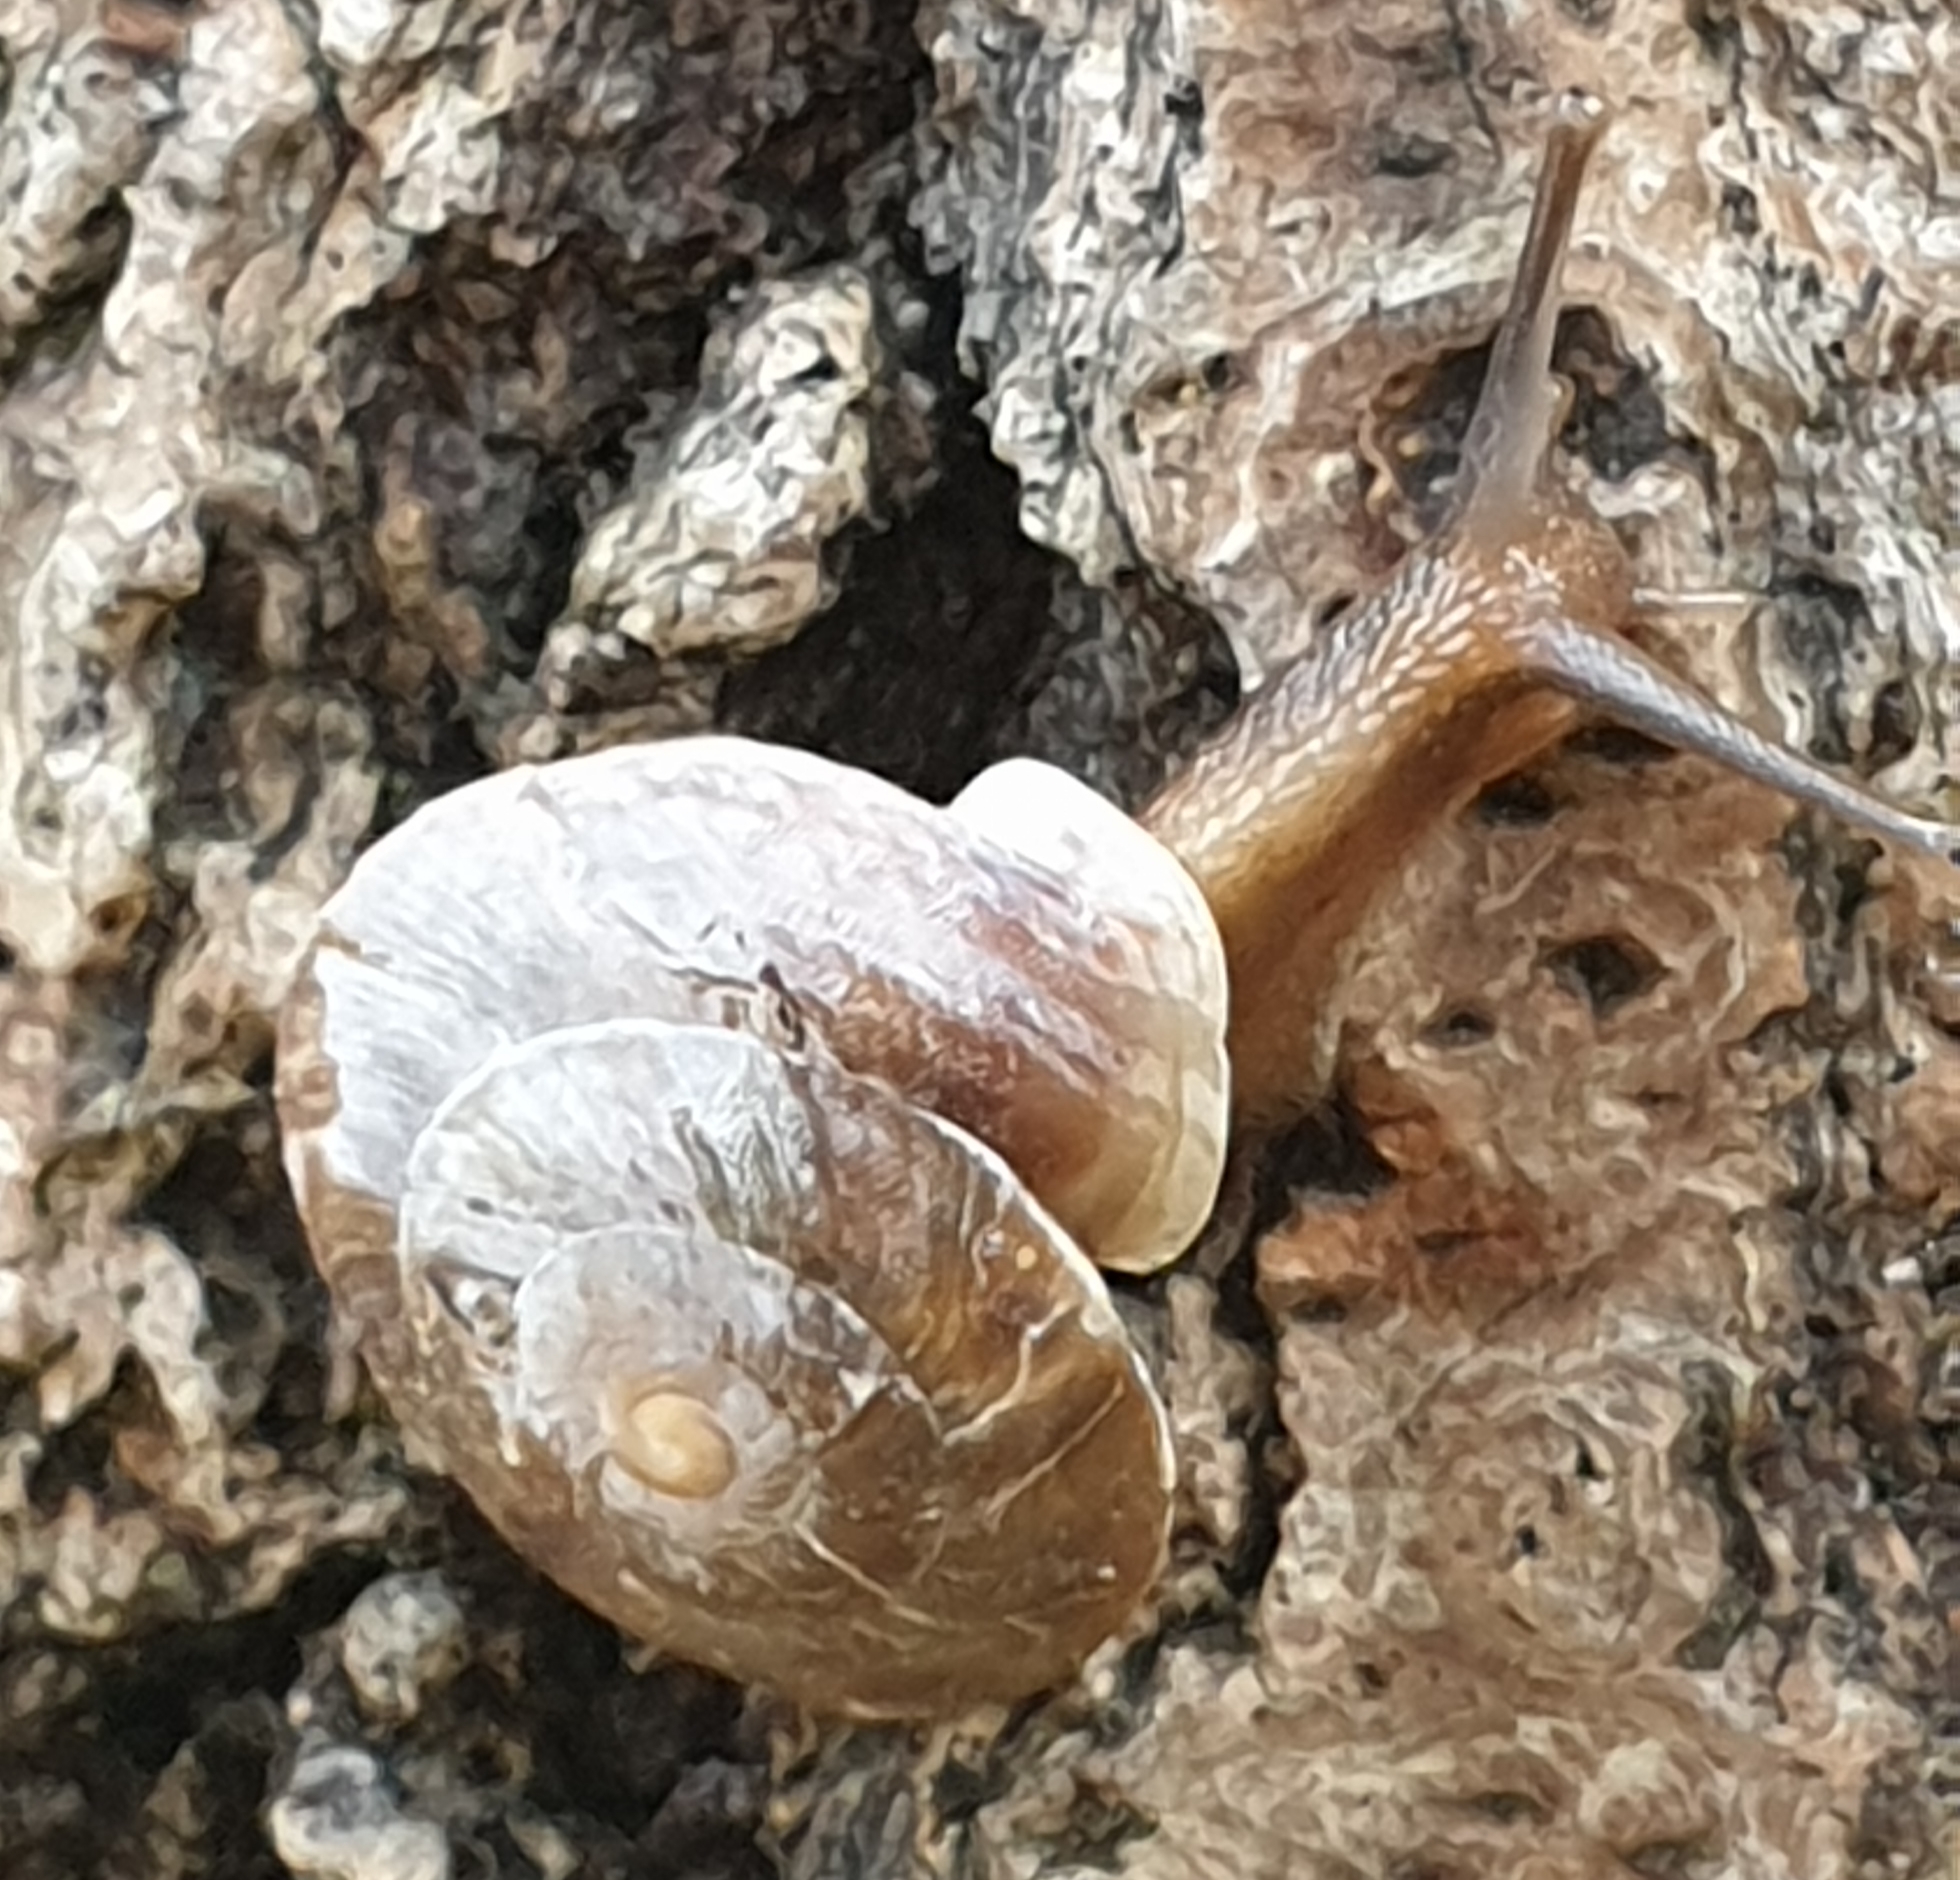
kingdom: Animalia
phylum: Mollusca
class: Gastropoda
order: Stylommatophora
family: Helicidae
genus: Helicigona
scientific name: Helicigona lapicida
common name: Lapidary snail
